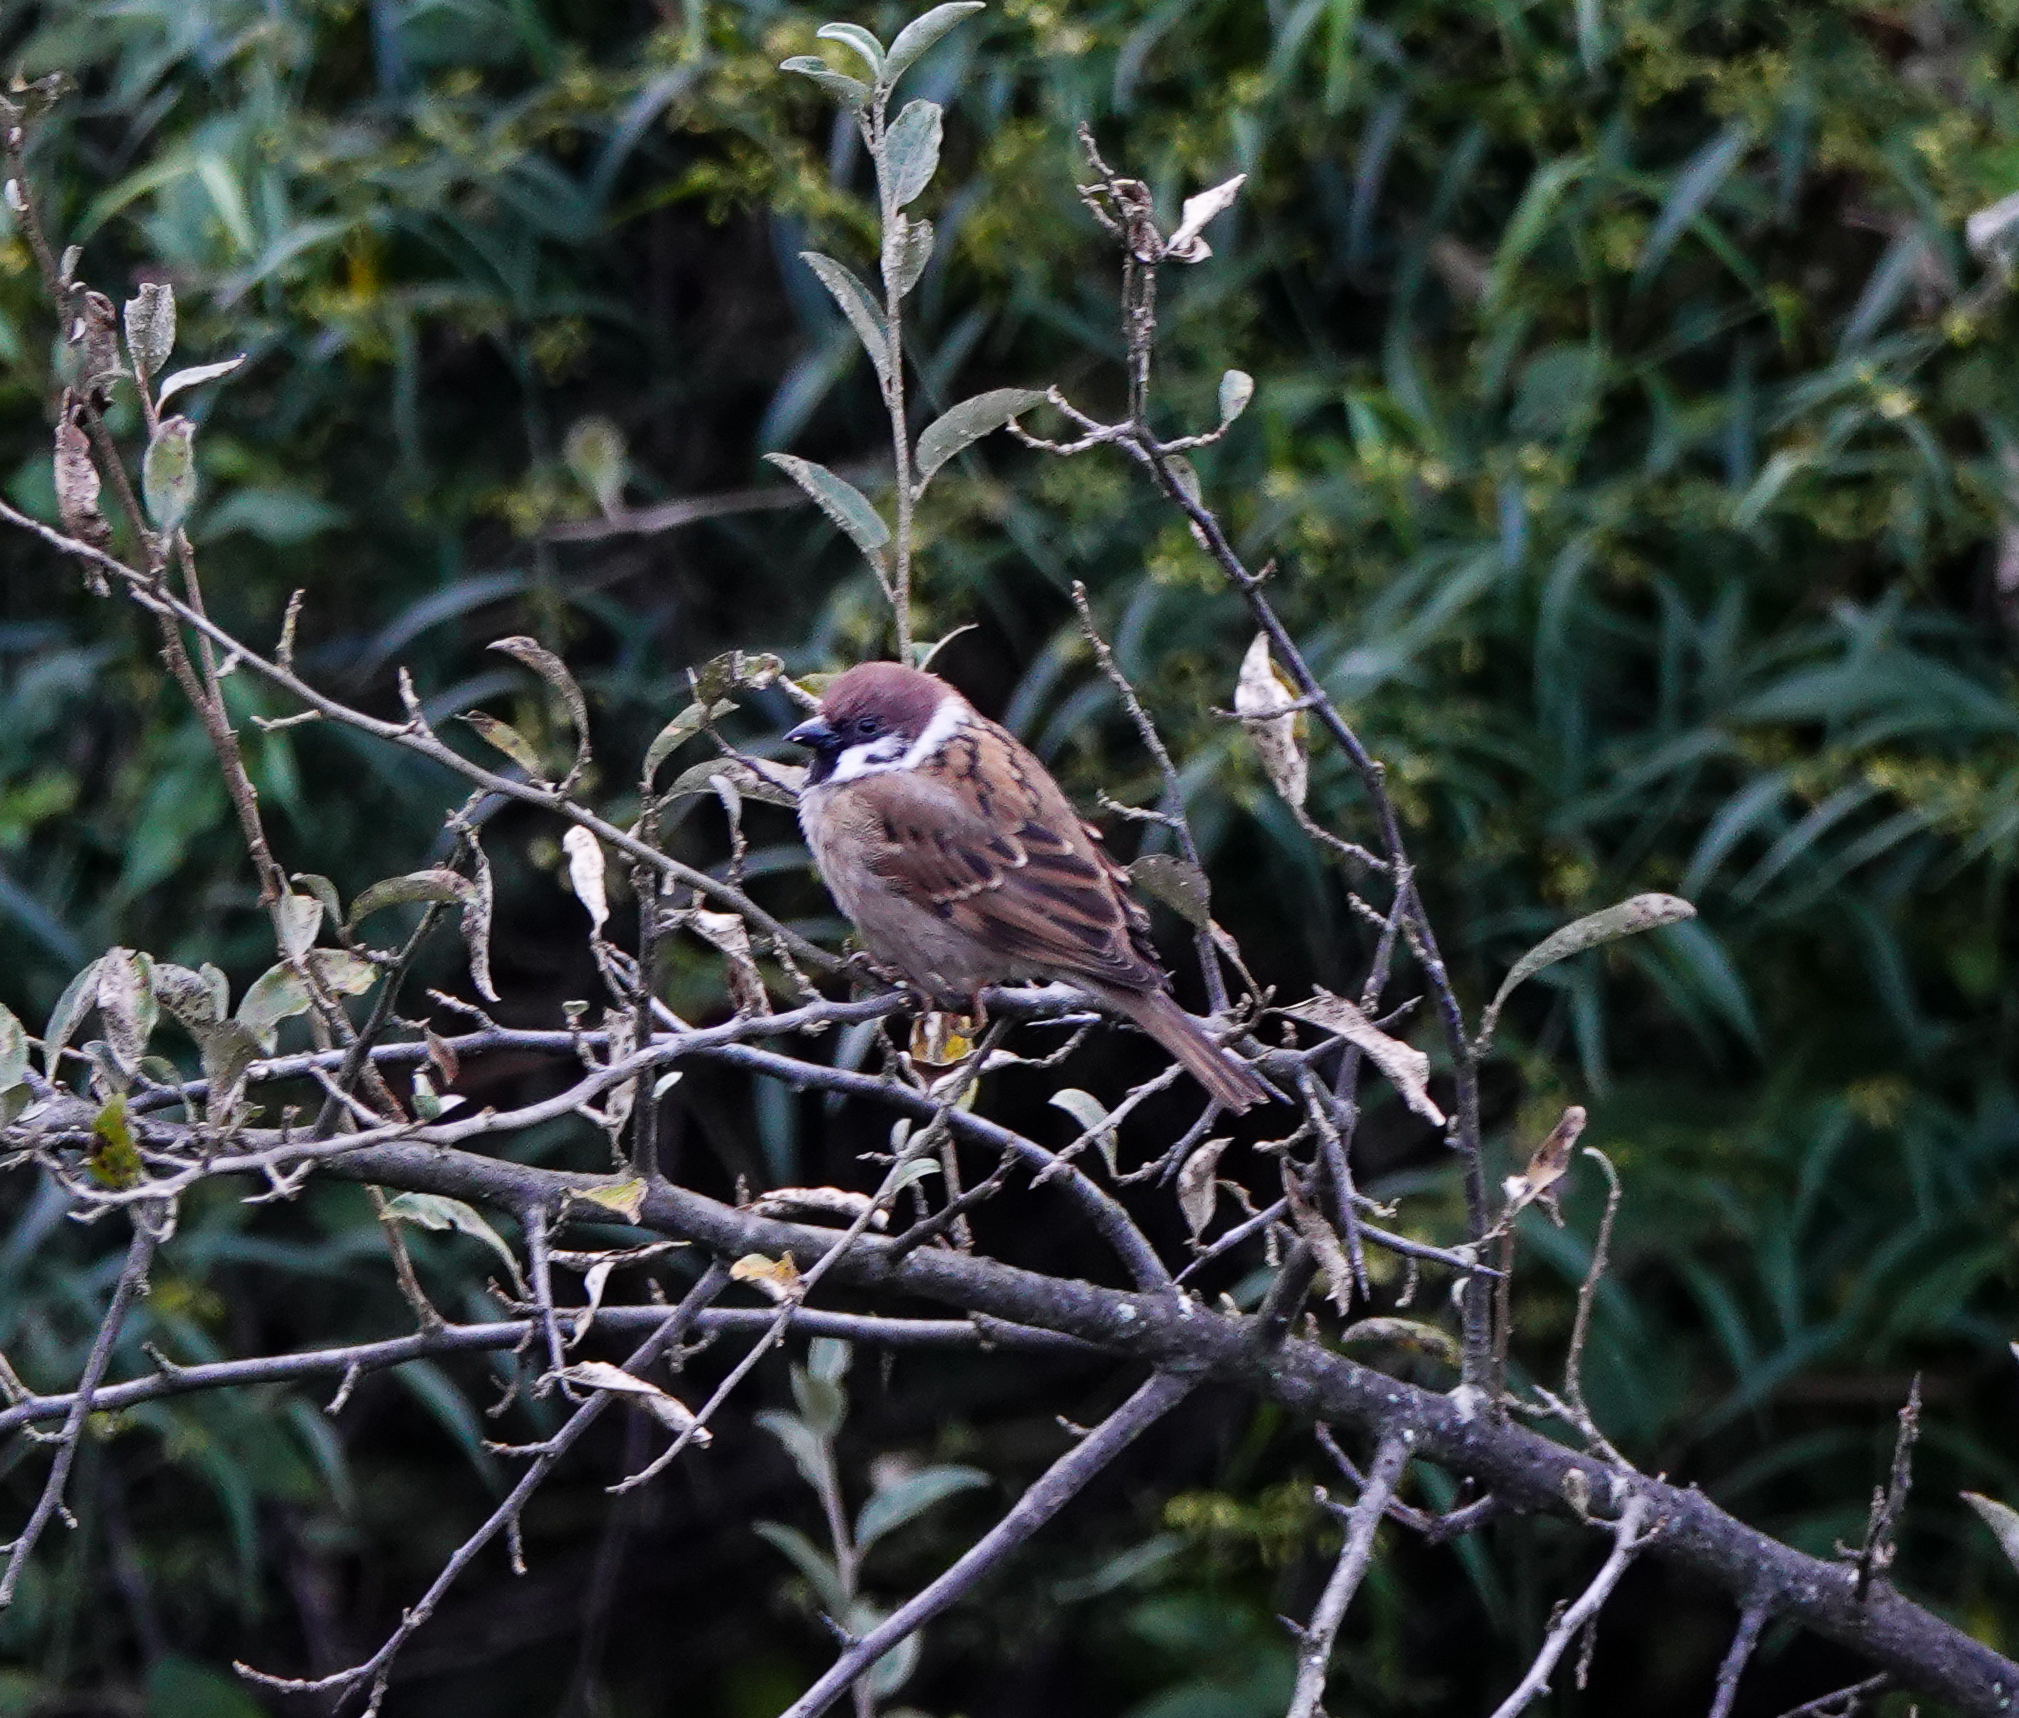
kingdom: Animalia
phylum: Chordata
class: Aves
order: Passeriformes
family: Passeridae
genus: Passer
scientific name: Passer montanus
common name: Eurasian tree sparrow
